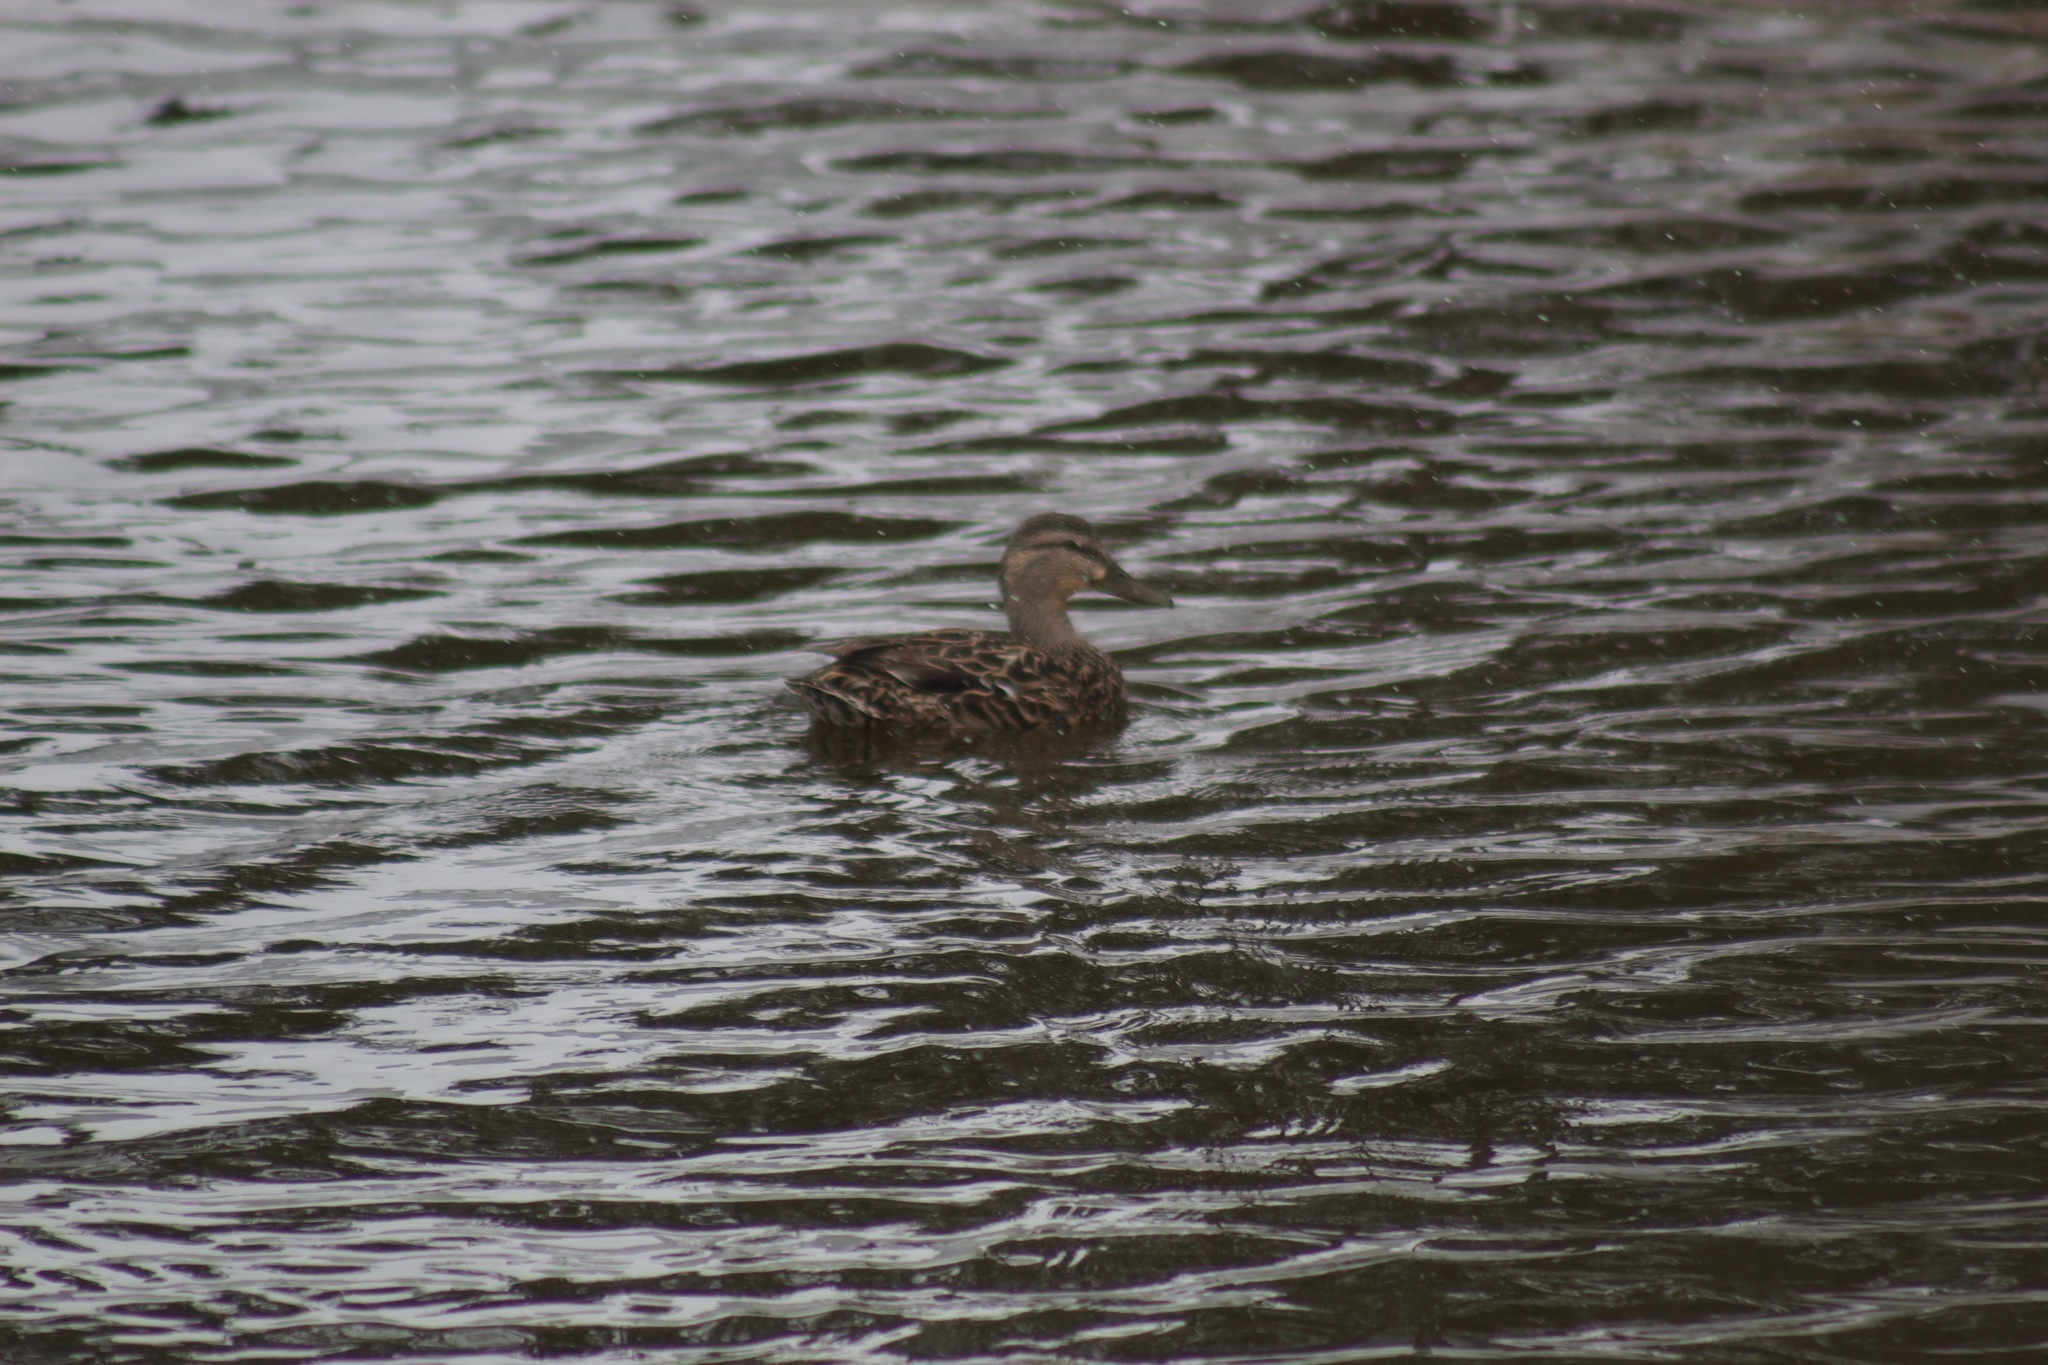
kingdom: Animalia
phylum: Chordata
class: Aves
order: Anseriformes
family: Anatidae
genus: Anas
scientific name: Anas platyrhynchos
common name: Mallard
